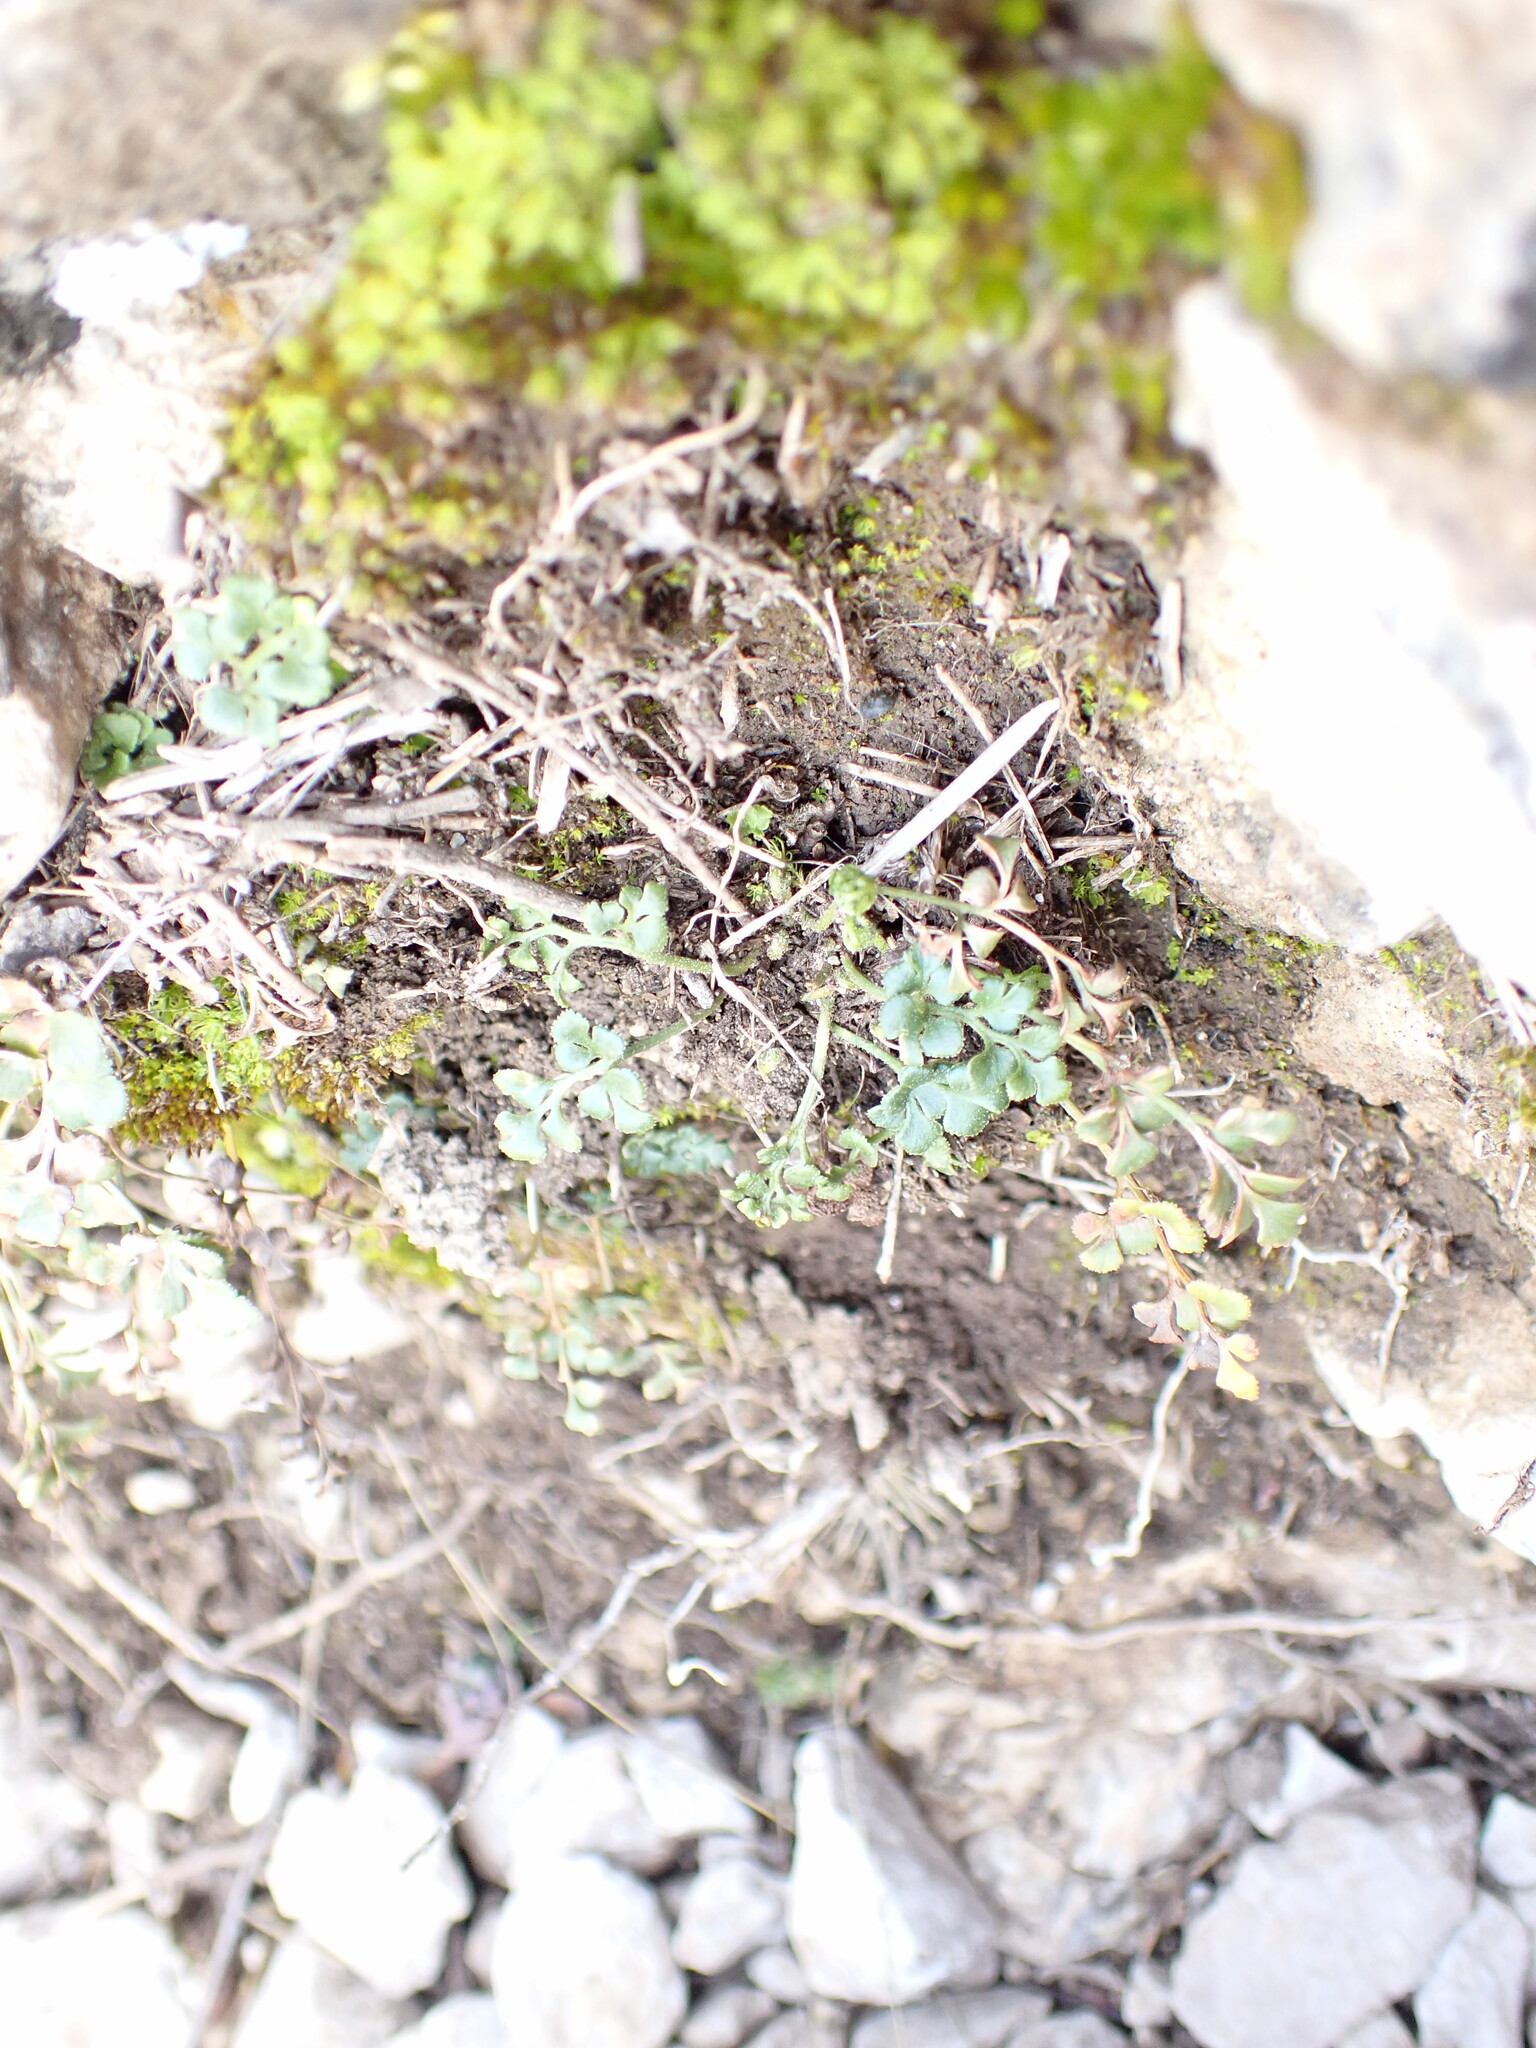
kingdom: Plantae
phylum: Tracheophyta
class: Polypodiopsida
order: Polypodiales
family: Aspleniaceae
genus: Asplenium
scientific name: Asplenium ruta-muraria
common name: Wall-rue
